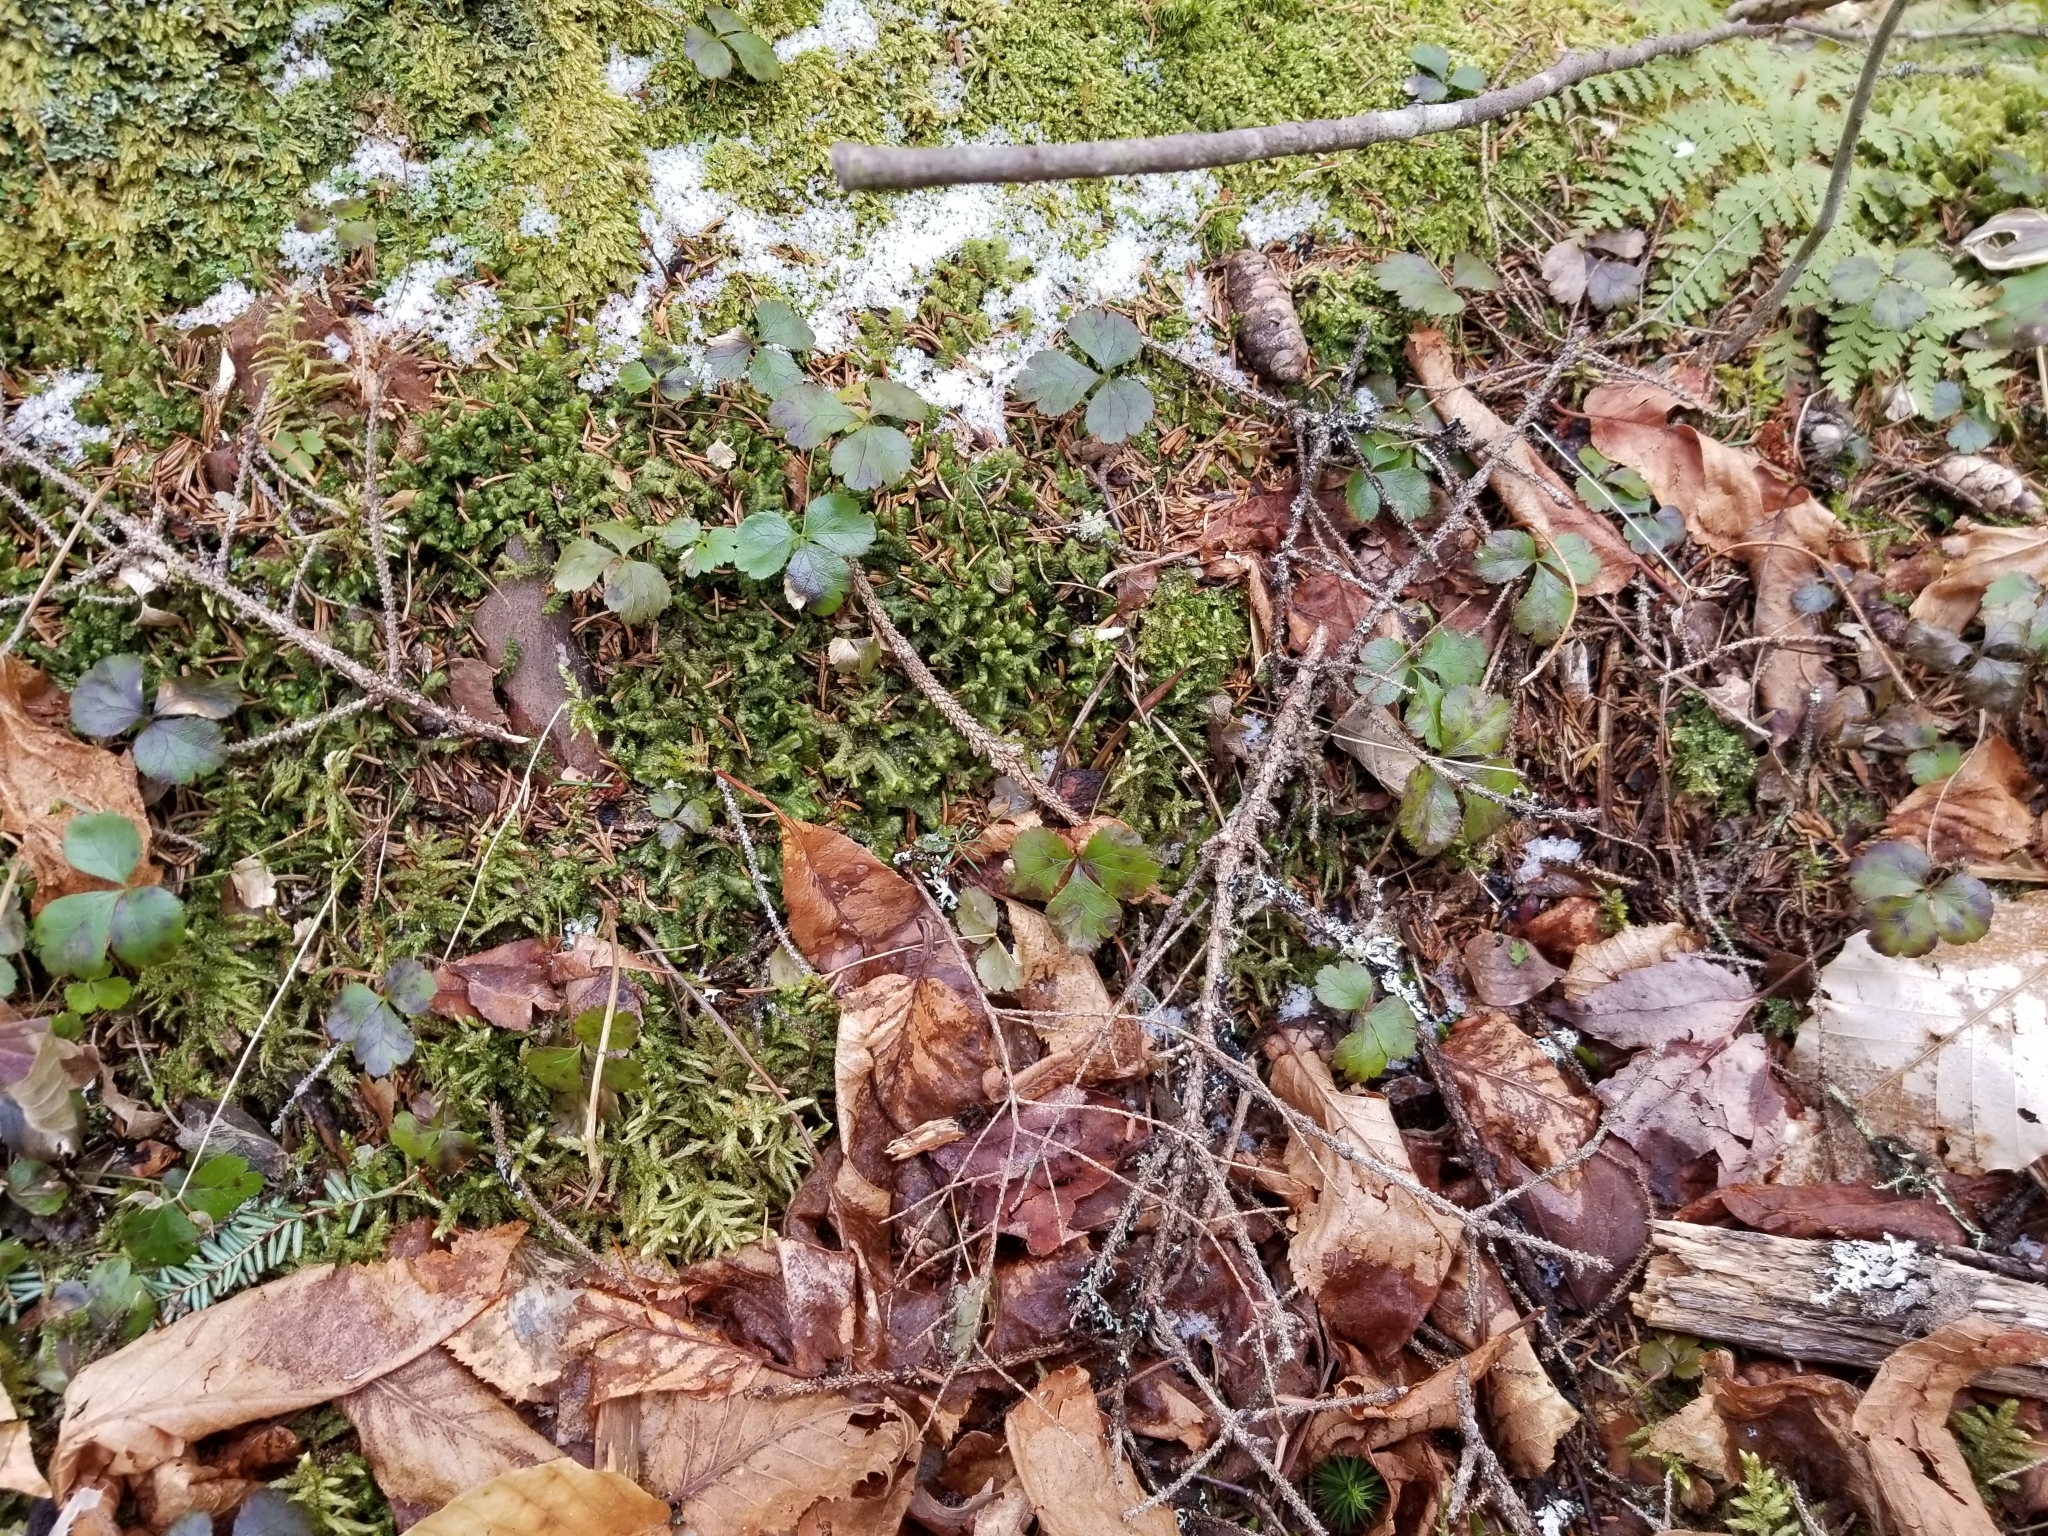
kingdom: Plantae
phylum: Tracheophyta
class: Magnoliopsida
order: Ranunculales
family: Ranunculaceae
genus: Coptis
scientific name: Coptis trifolia
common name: Canker-root
